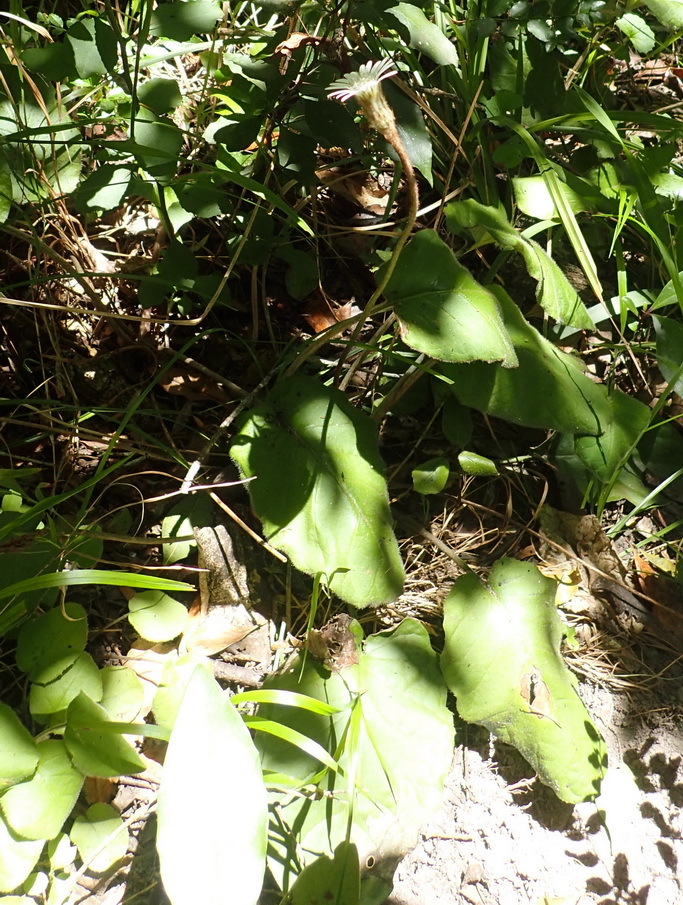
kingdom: Plantae
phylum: Tracheophyta
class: Magnoliopsida
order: Asterales
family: Asteraceae
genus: Piloselloides
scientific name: Piloselloides cordata
